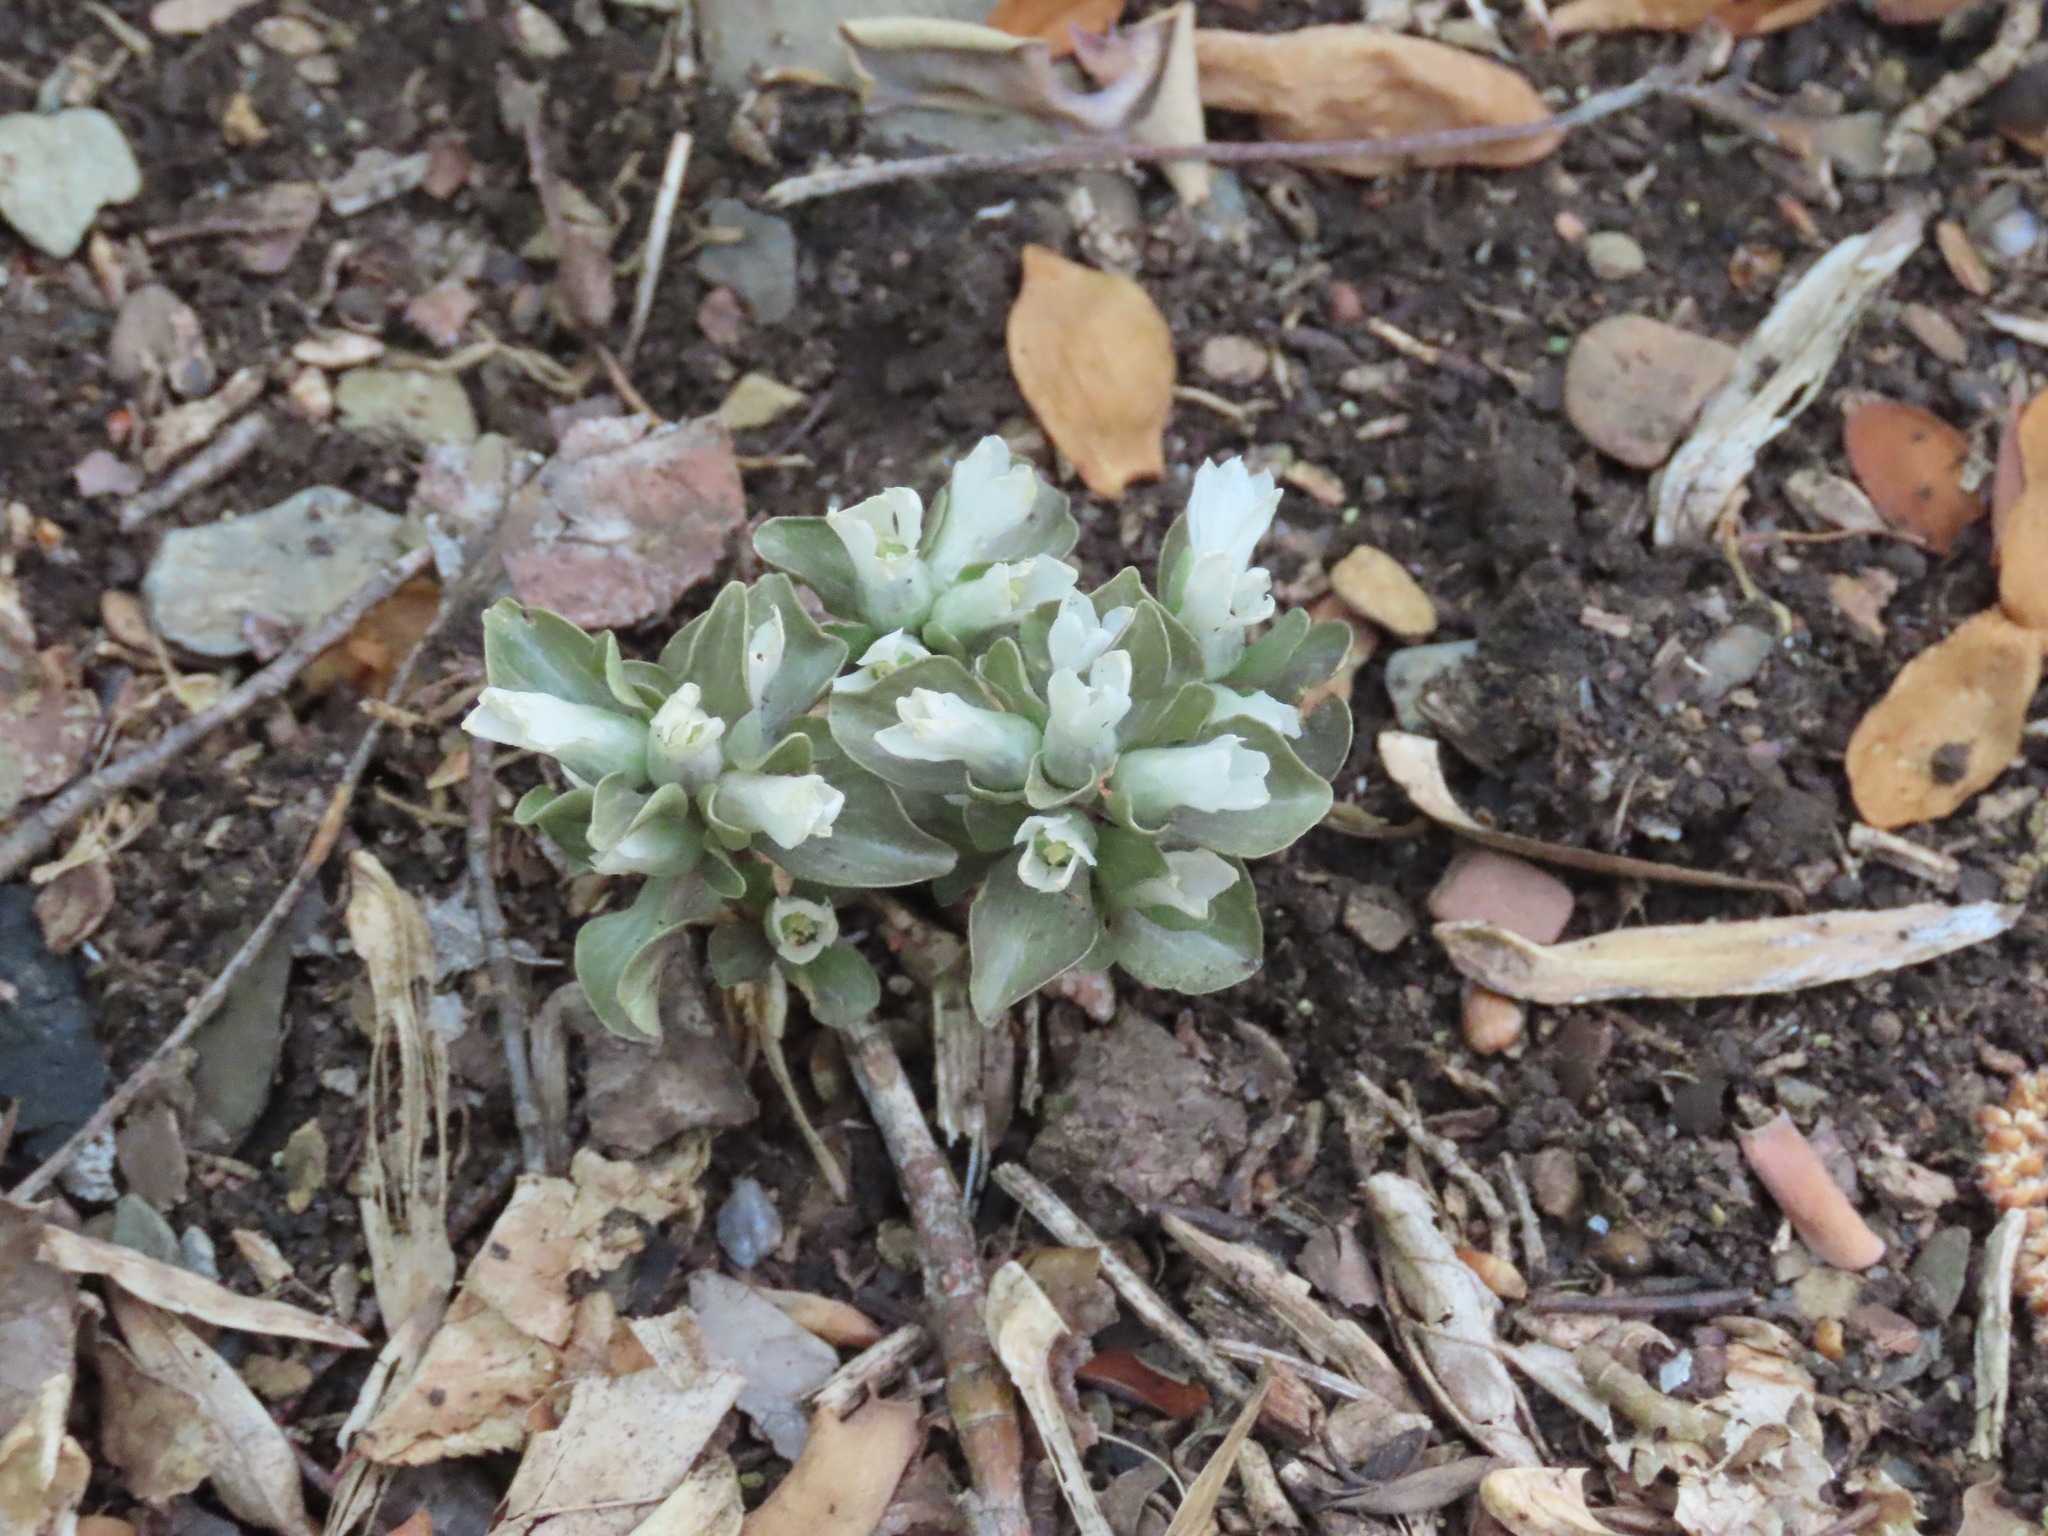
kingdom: Plantae
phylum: Tracheophyta
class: Magnoliopsida
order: Gentianales
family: Gentianaceae
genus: Obolaria
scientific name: Obolaria virginica
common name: Pennywort
